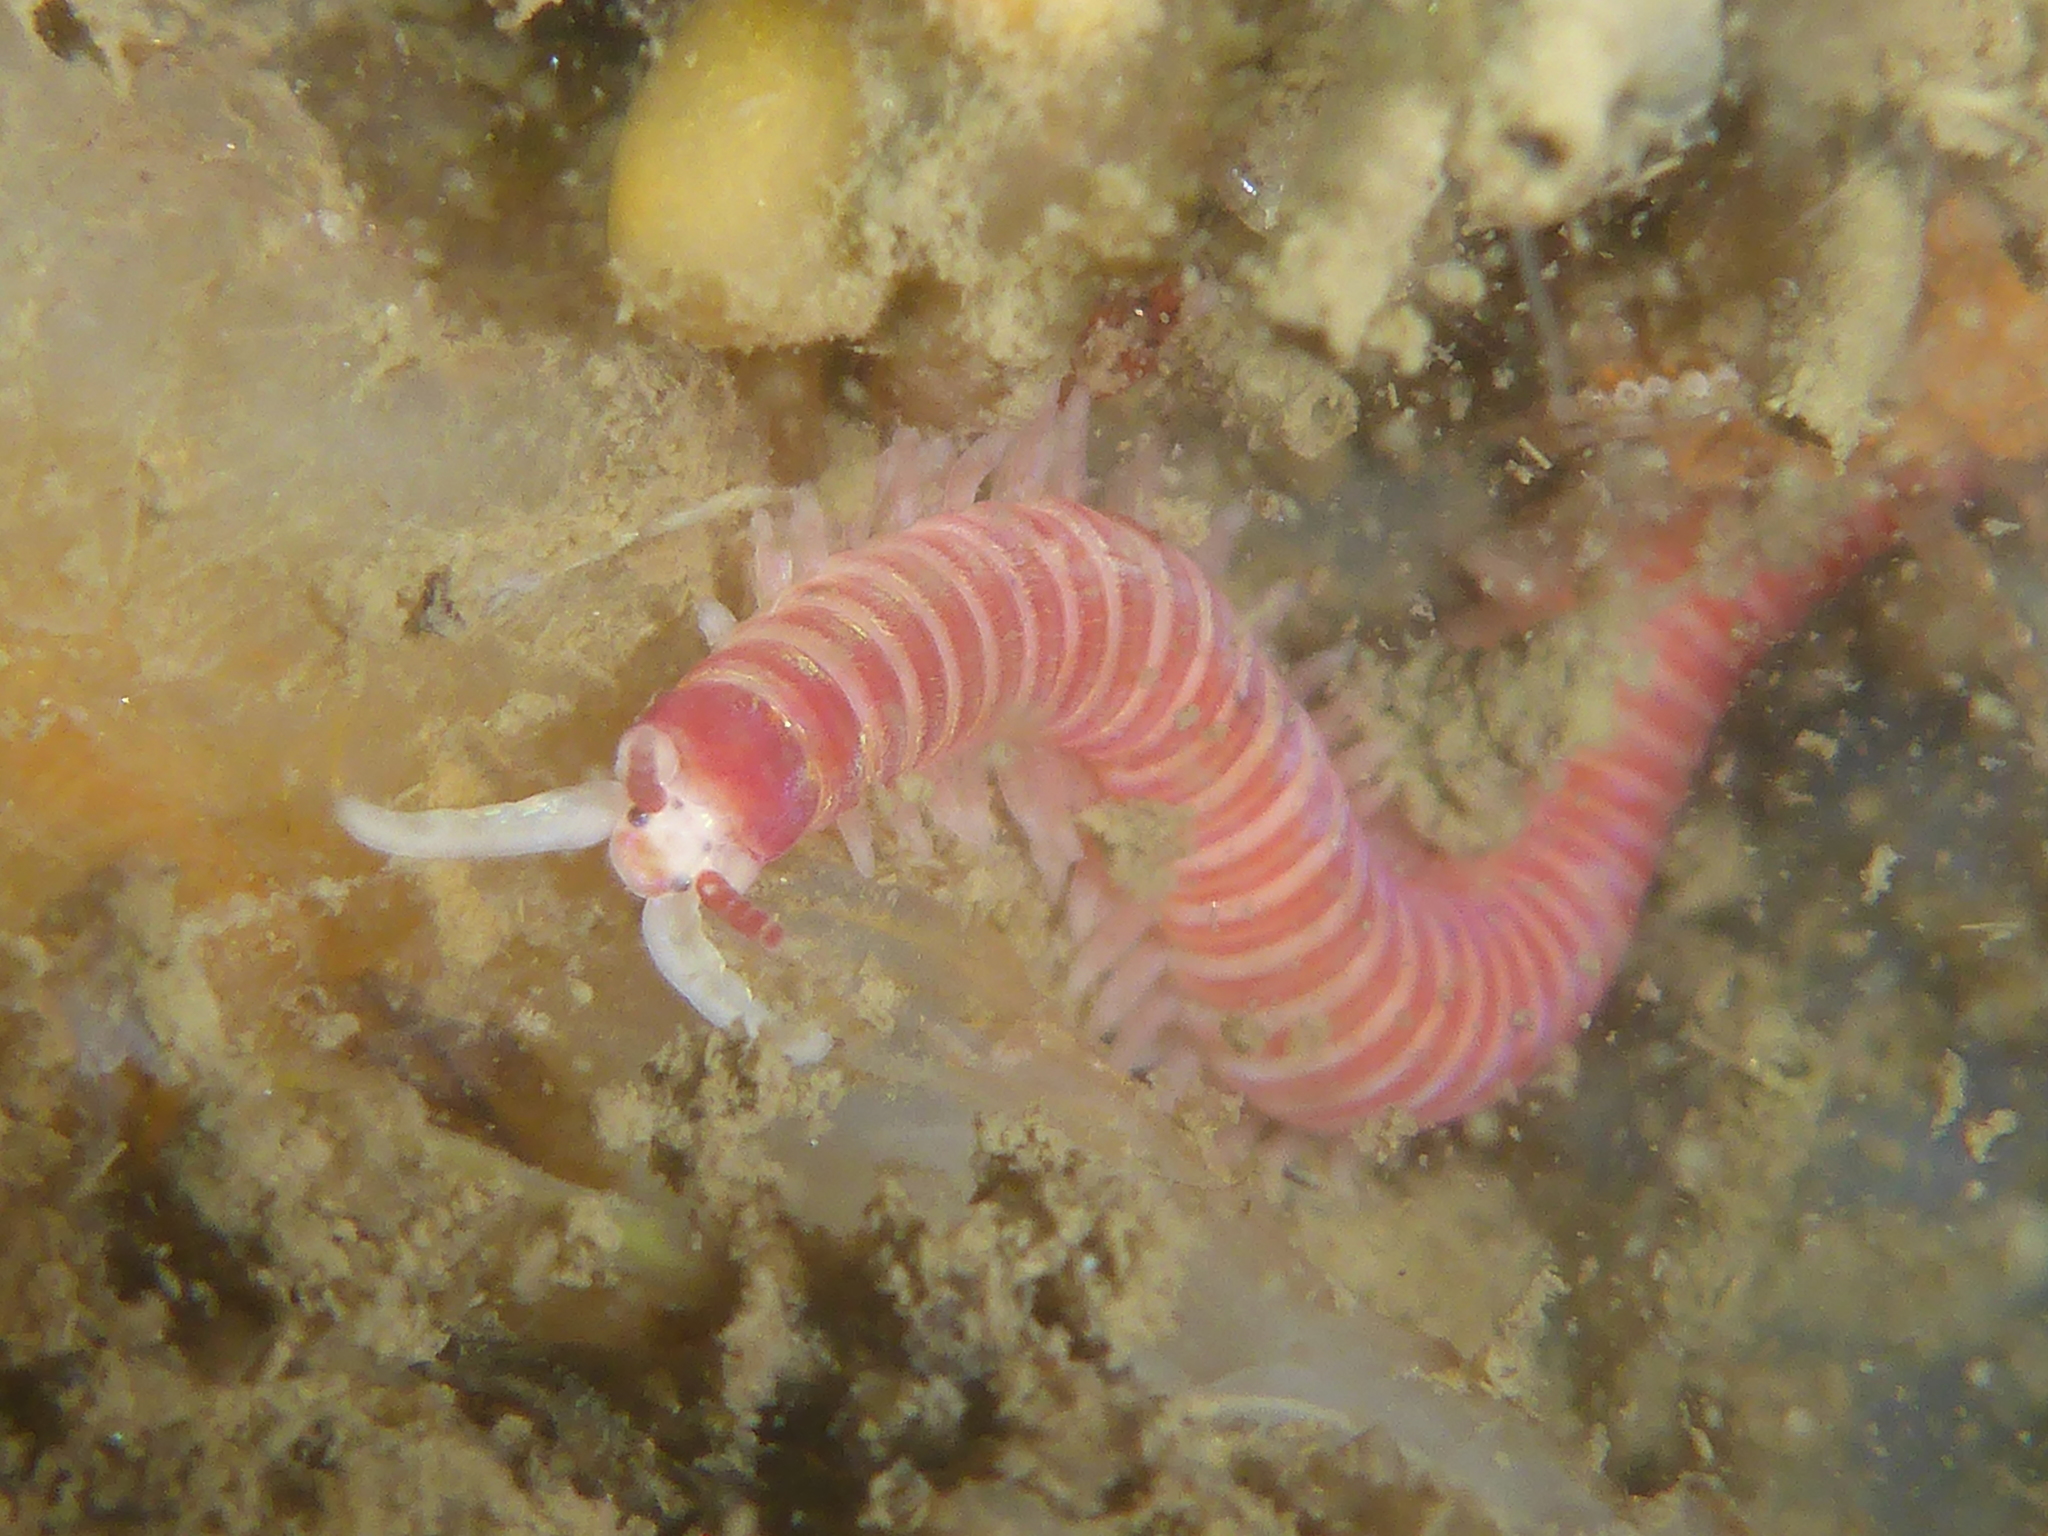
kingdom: Animalia
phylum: Annelida
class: Polychaeta
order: Eunicida
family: Dorvilleidae
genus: Dorvillea
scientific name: Dorvillea moniloceras
